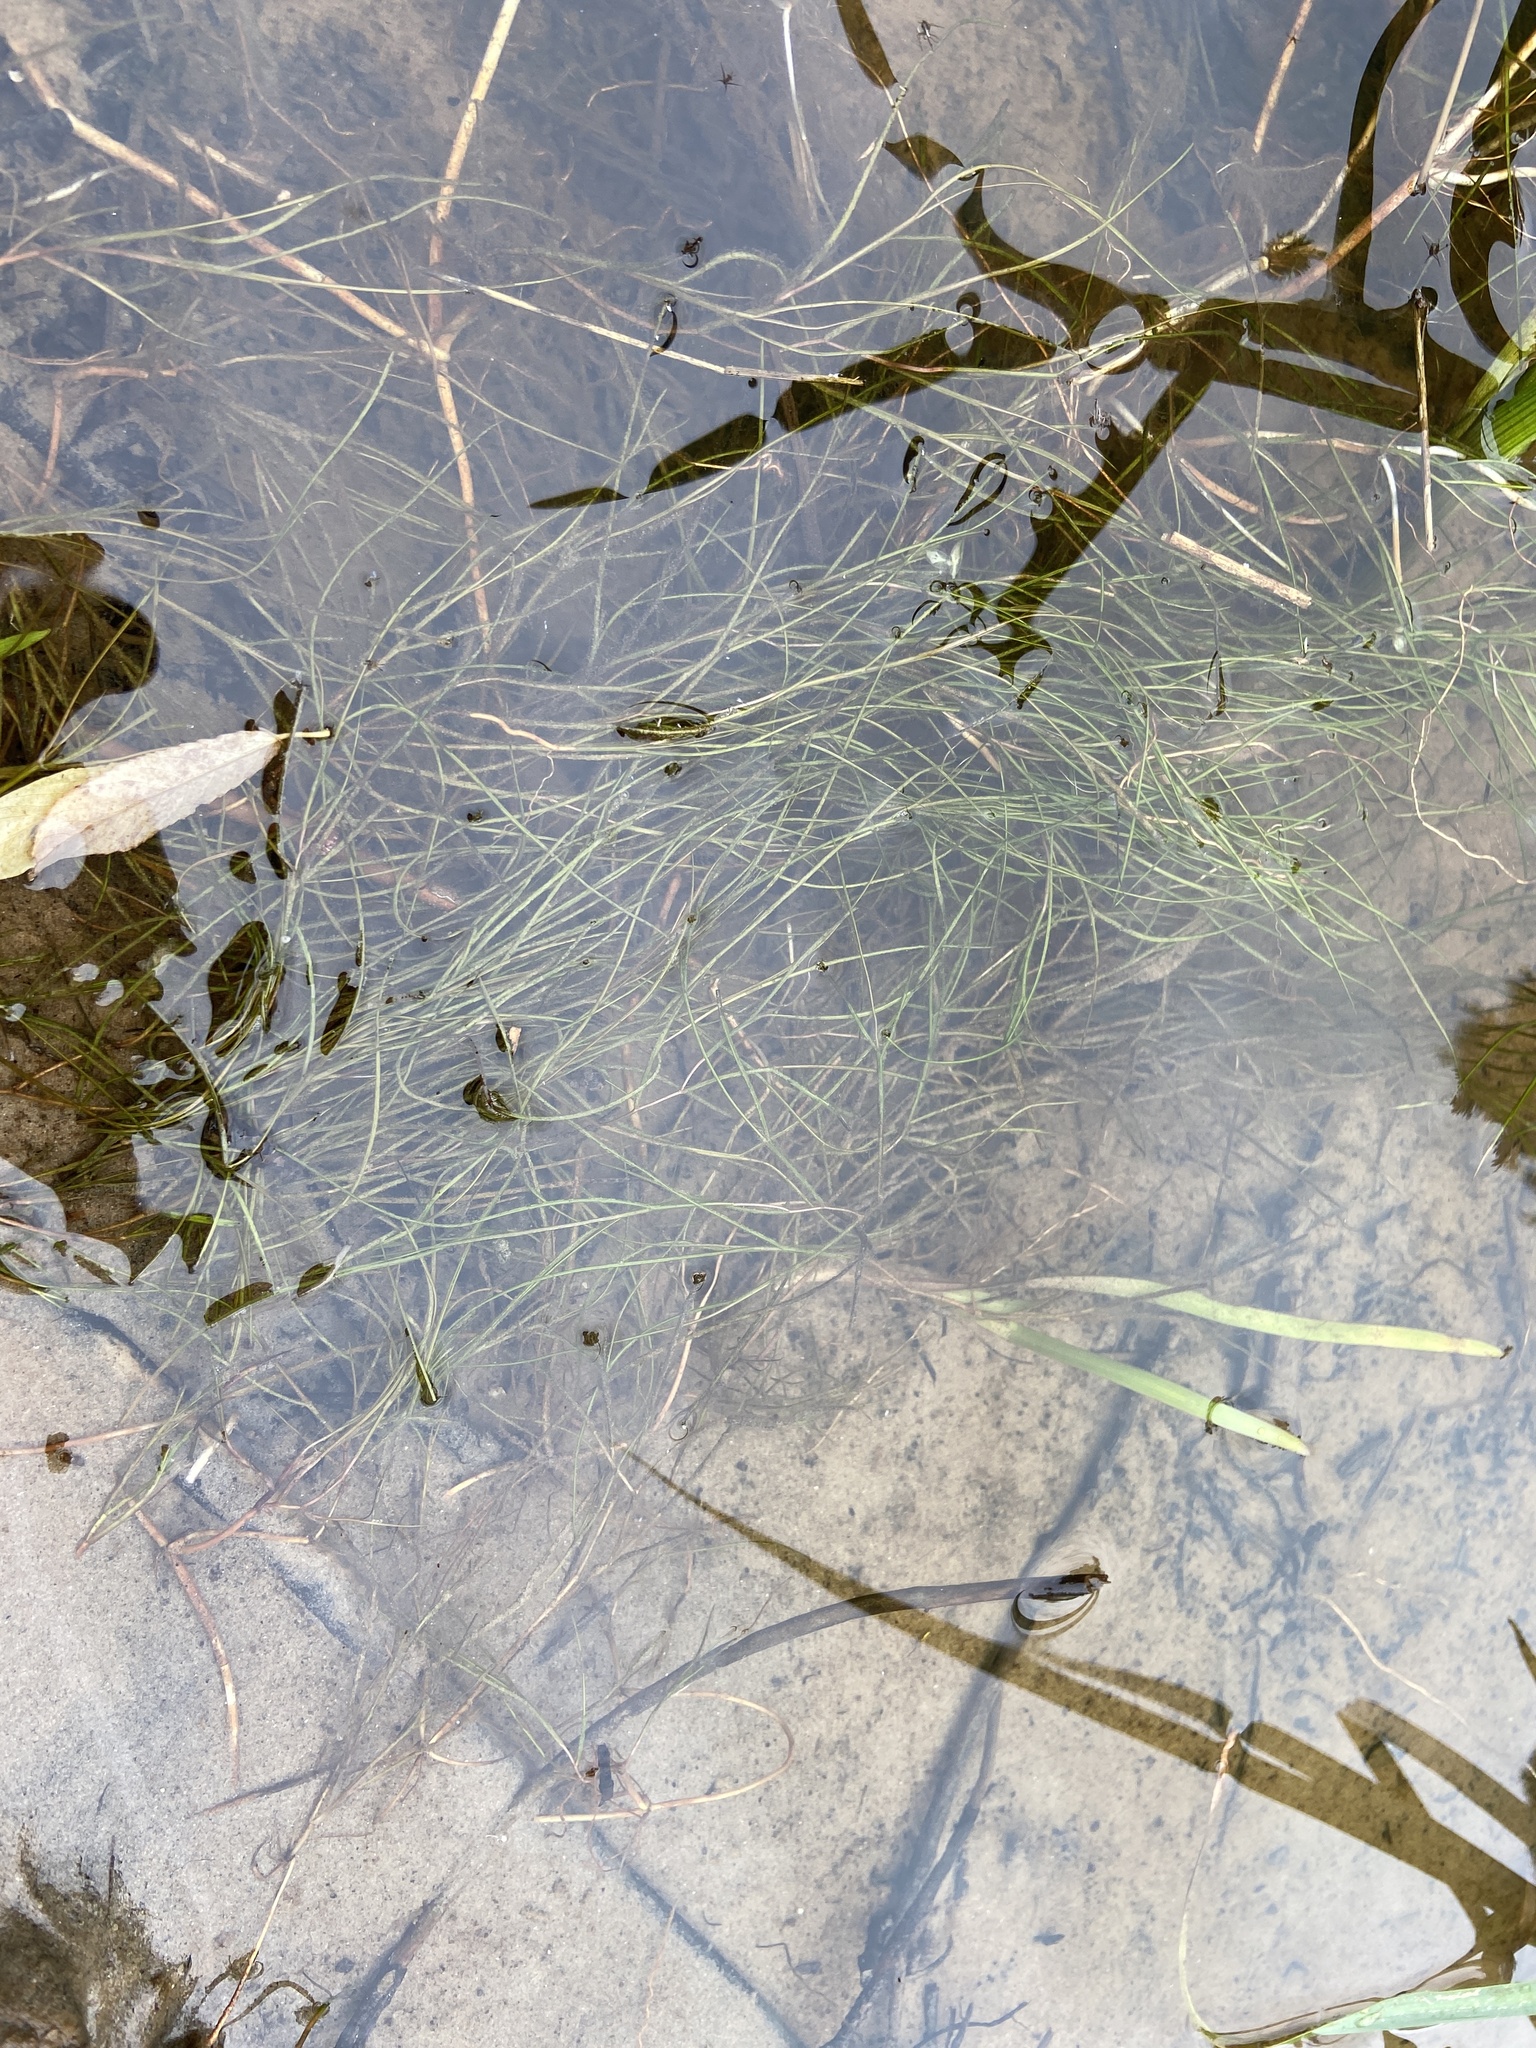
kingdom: Plantae
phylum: Tracheophyta
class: Liliopsida
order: Alismatales
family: Potamogetonaceae
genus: Stuckenia
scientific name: Stuckenia pectinata
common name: Sago pondweed
